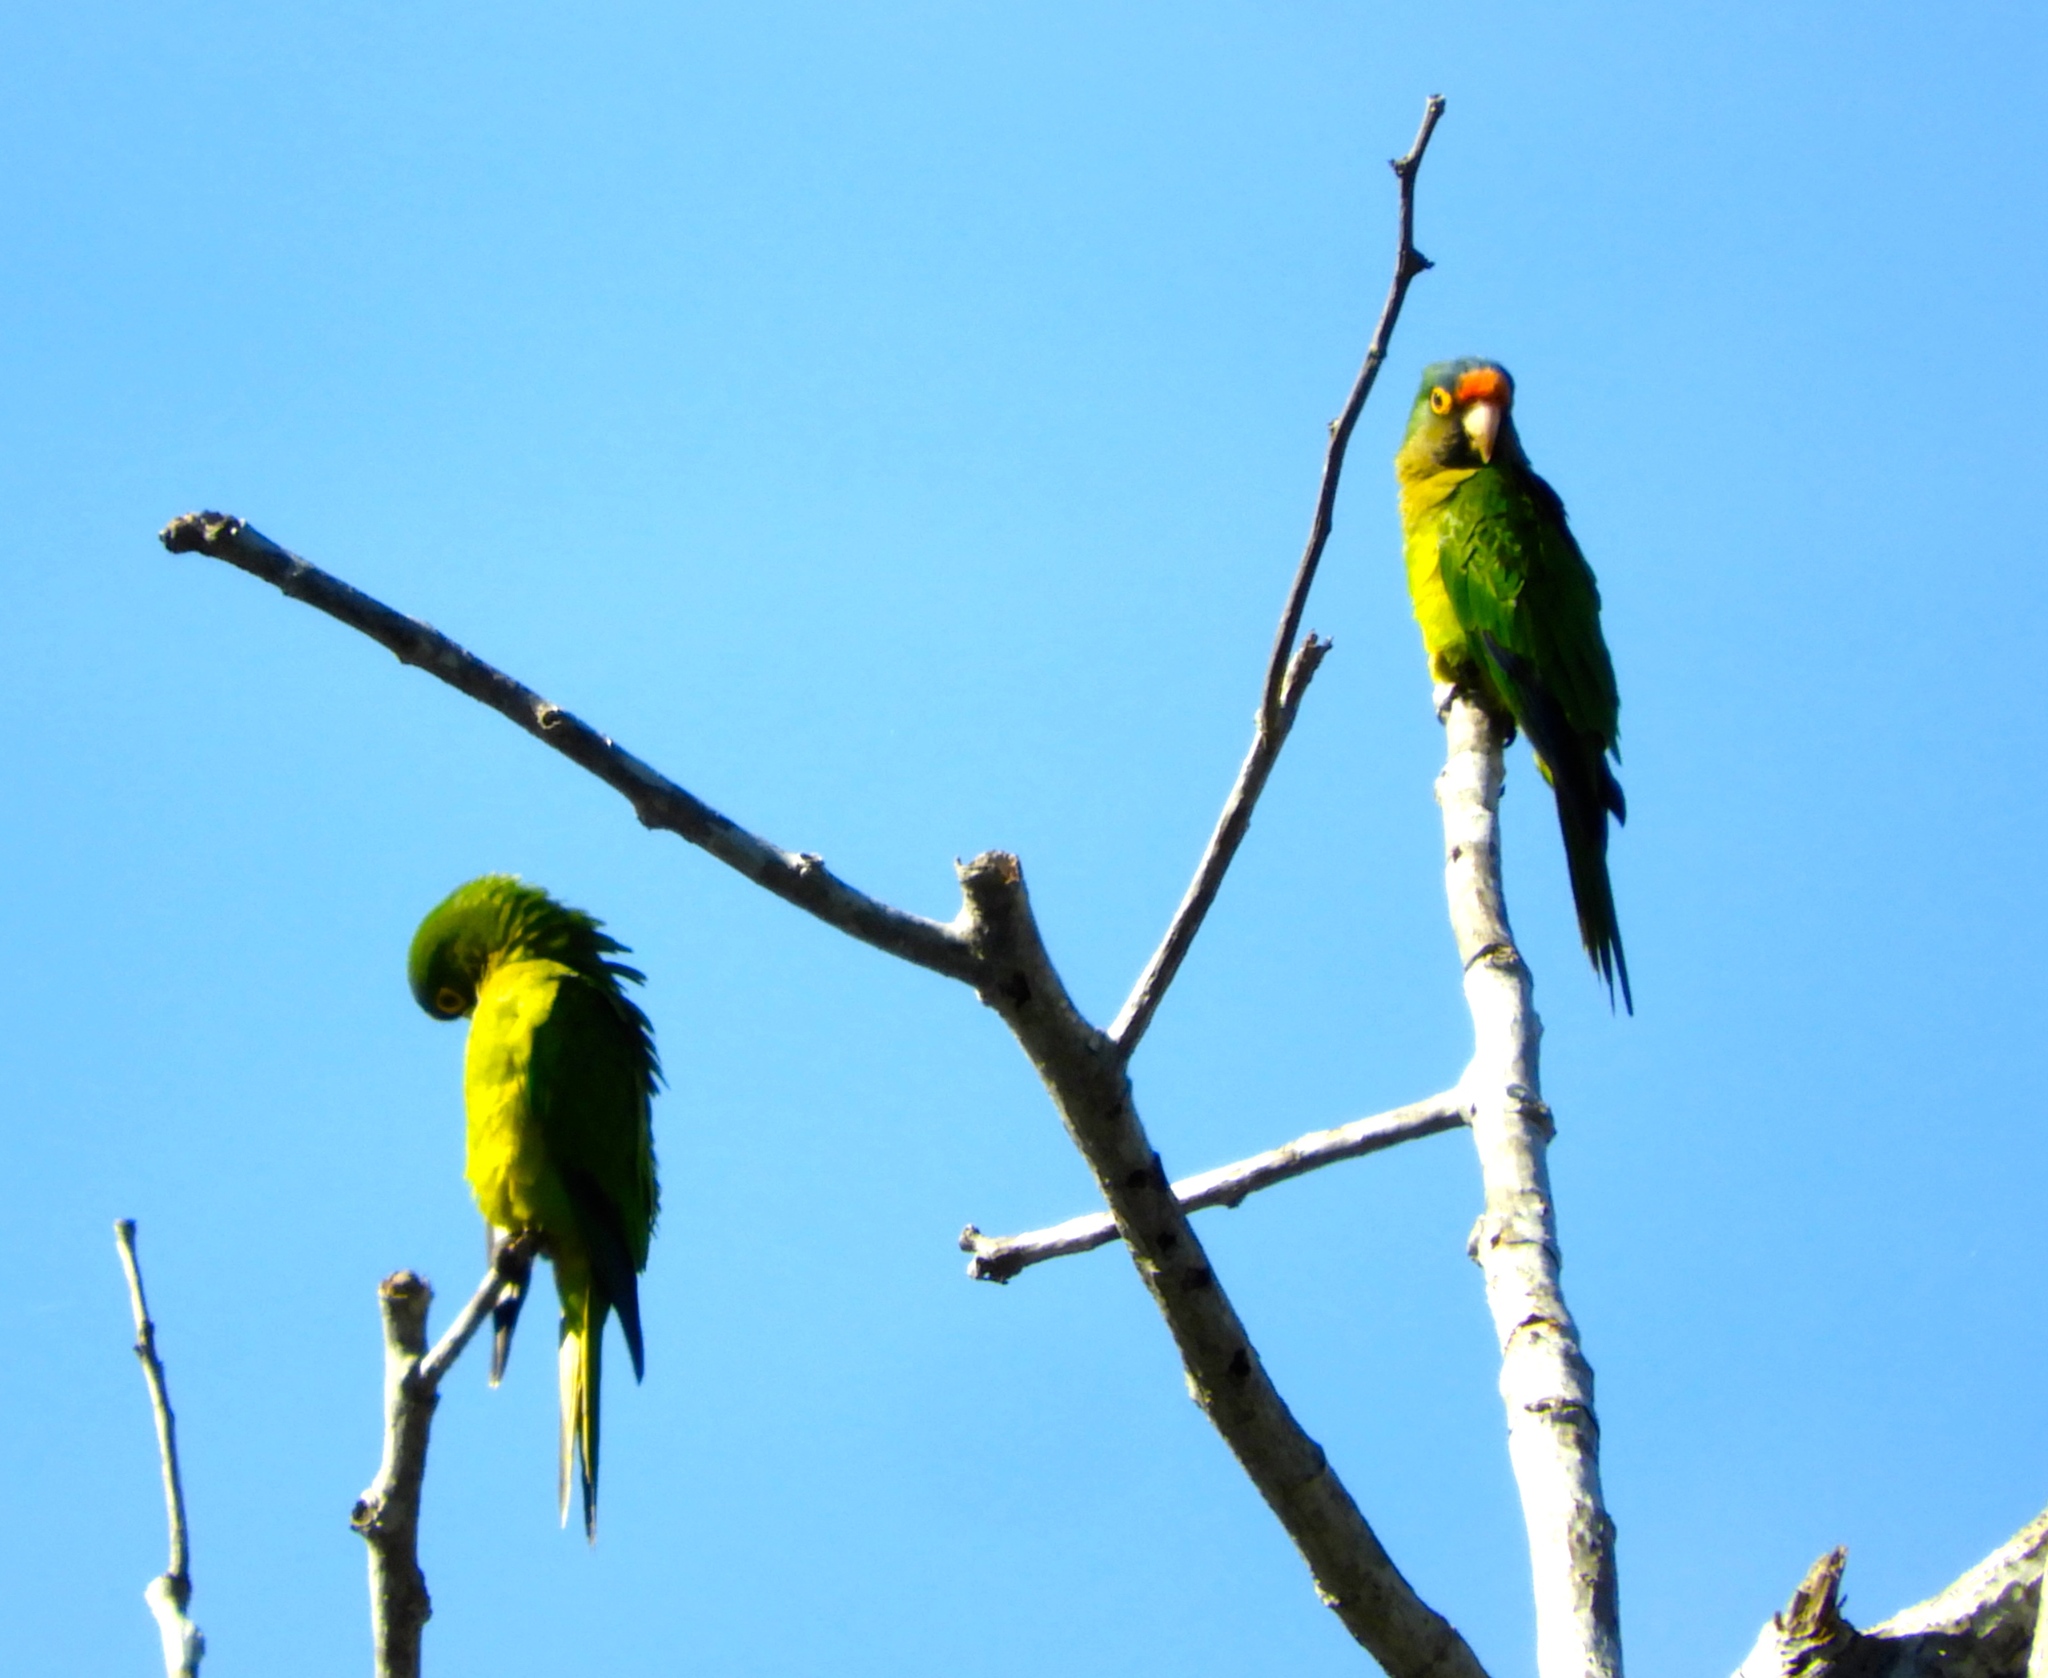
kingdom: Animalia
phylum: Chordata
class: Aves
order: Psittaciformes
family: Psittacidae
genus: Aratinga
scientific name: Aratinga canicularis
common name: Orange-fronted parakeet
